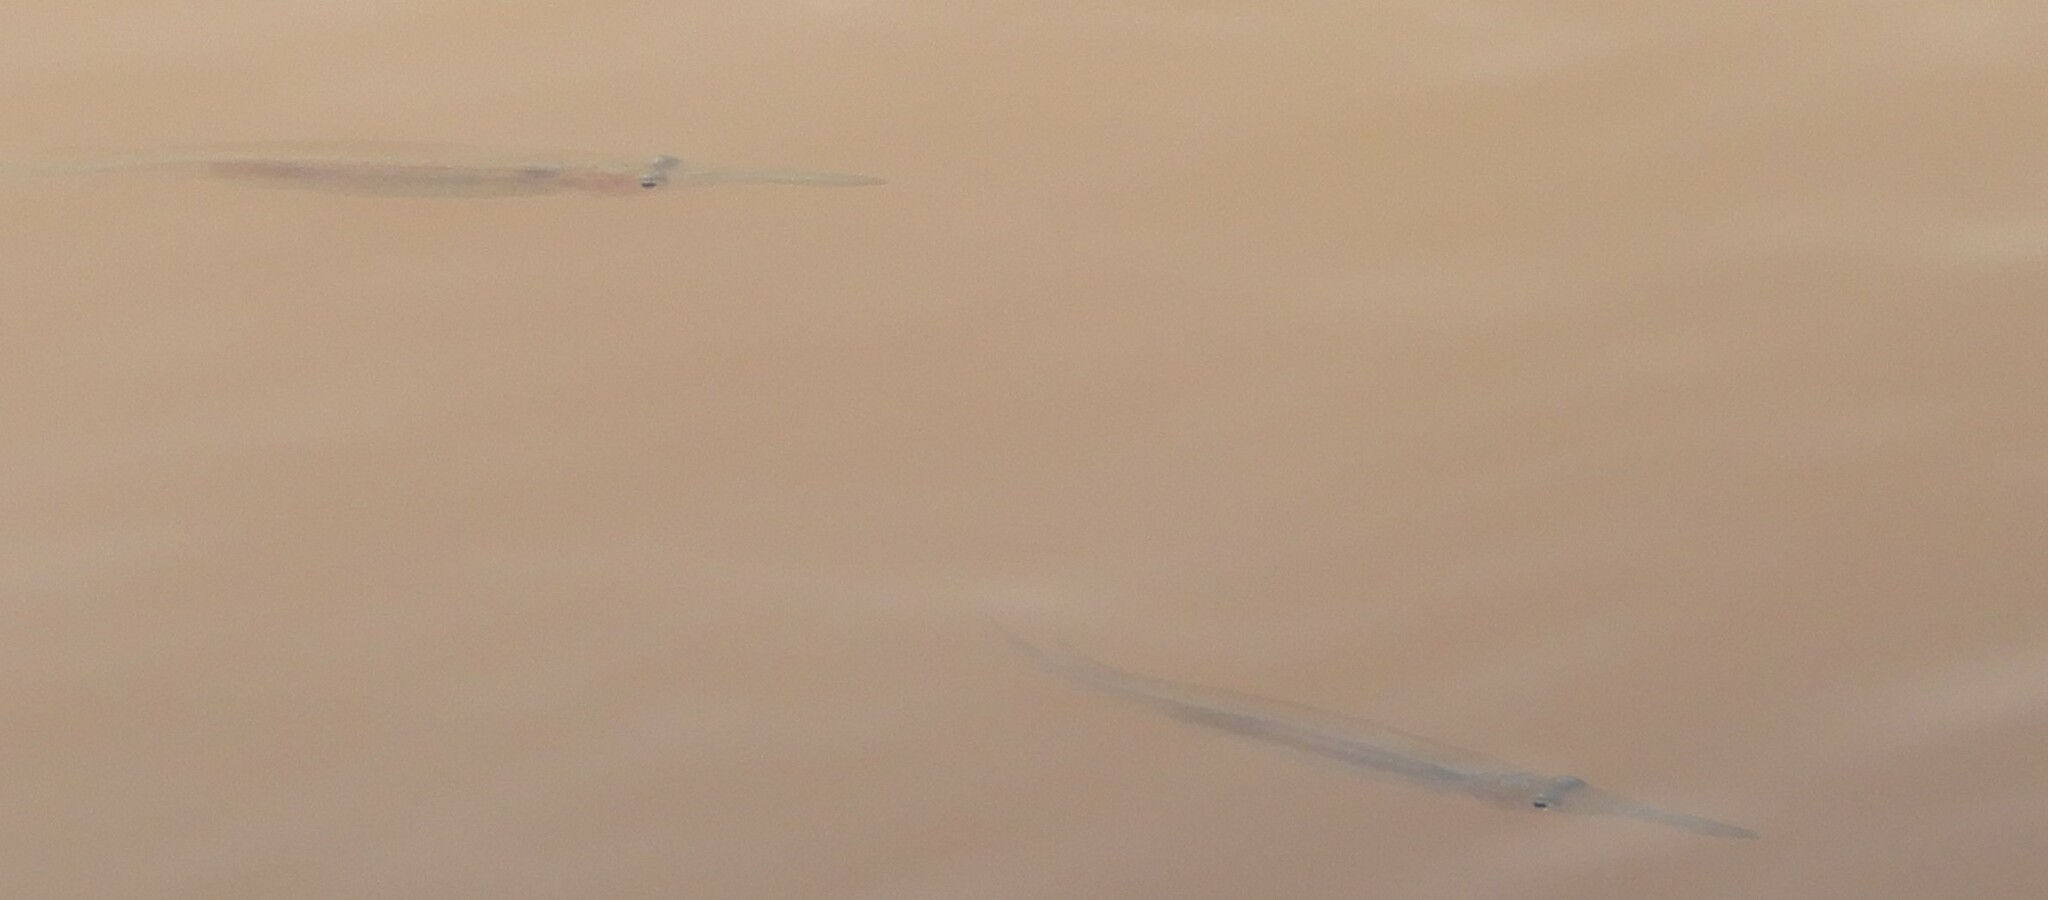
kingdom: Animalia
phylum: Chordata
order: Beloniformes
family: Zenarchopteridae
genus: Dermogenys
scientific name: Dermogenys siamensis
